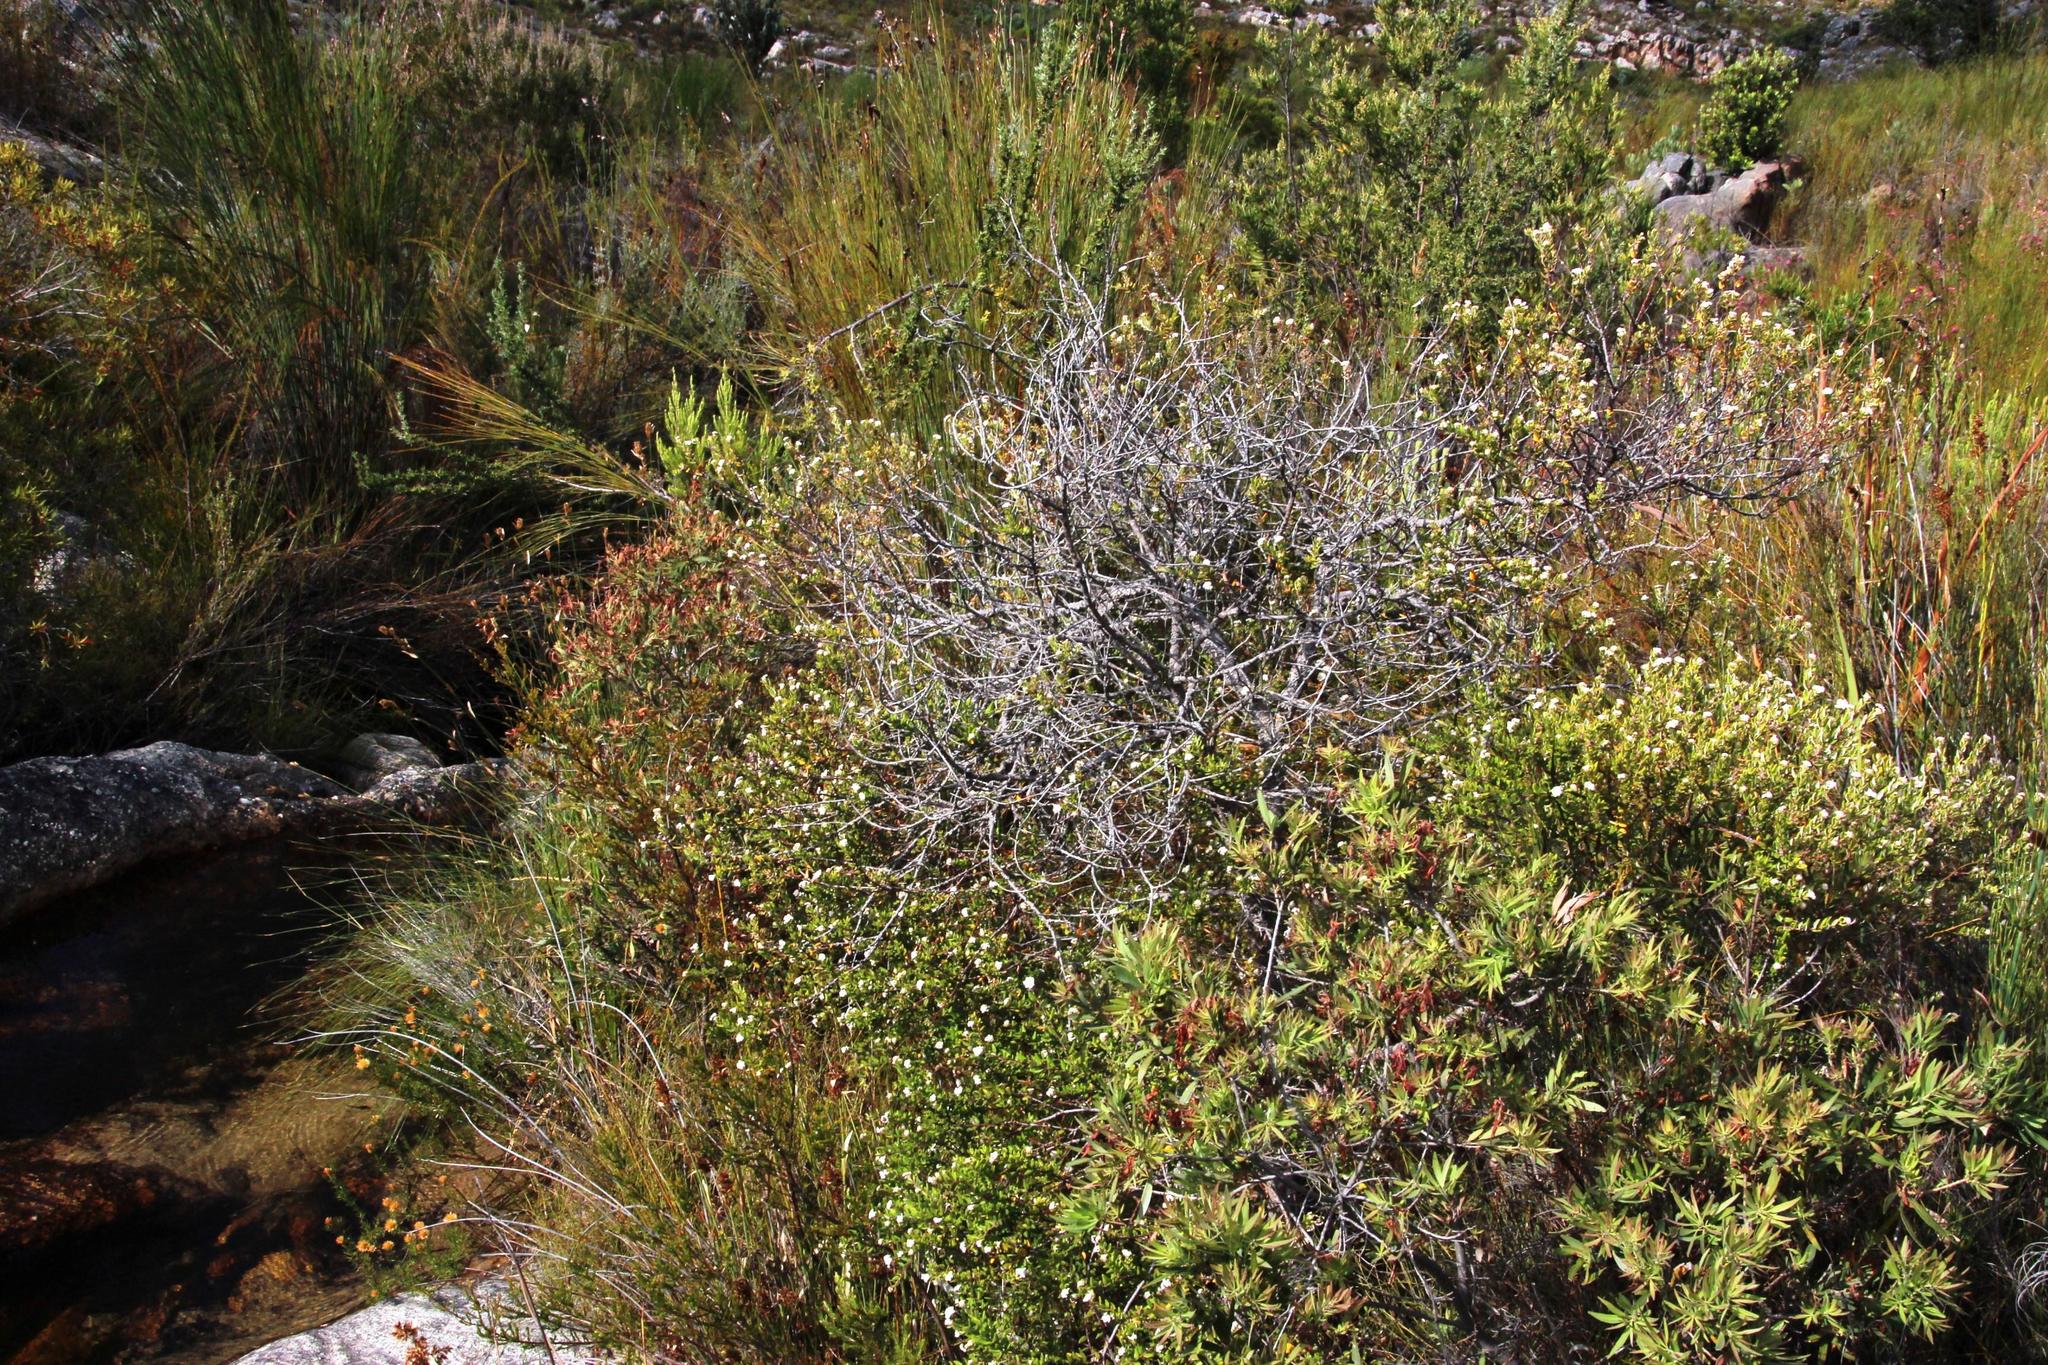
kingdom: Plantae
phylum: Tracheophyta
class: Magnoliopsida
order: Rosales
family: Rhamnaceae
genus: Phylica
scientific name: Phylica nervosa
